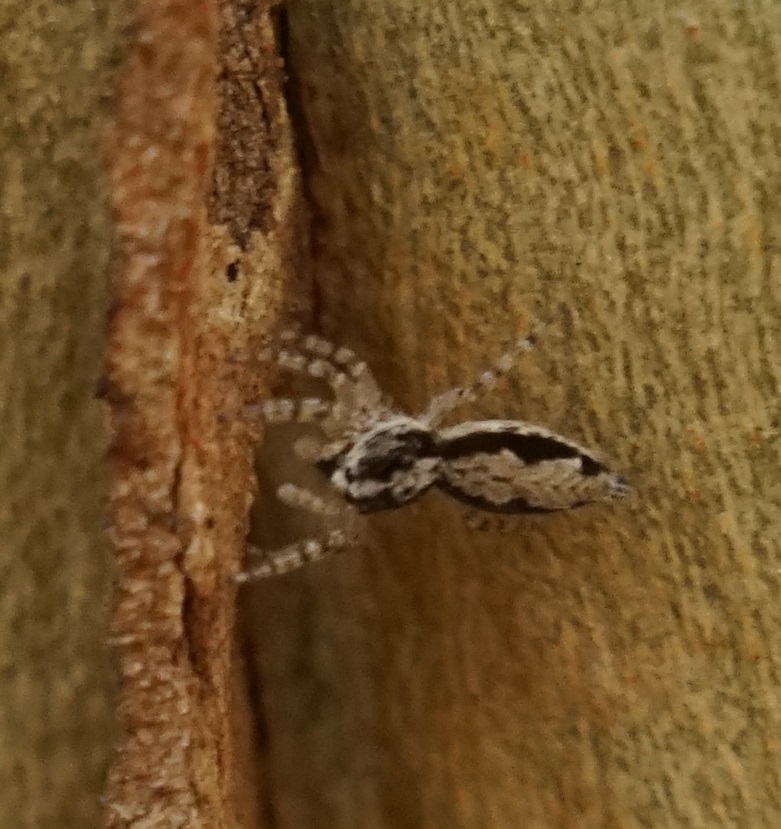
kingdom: Animalia
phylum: Arthropoda
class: Arachnida
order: Araneae
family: Salticidae
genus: Apricia
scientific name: Apricia bracteata
